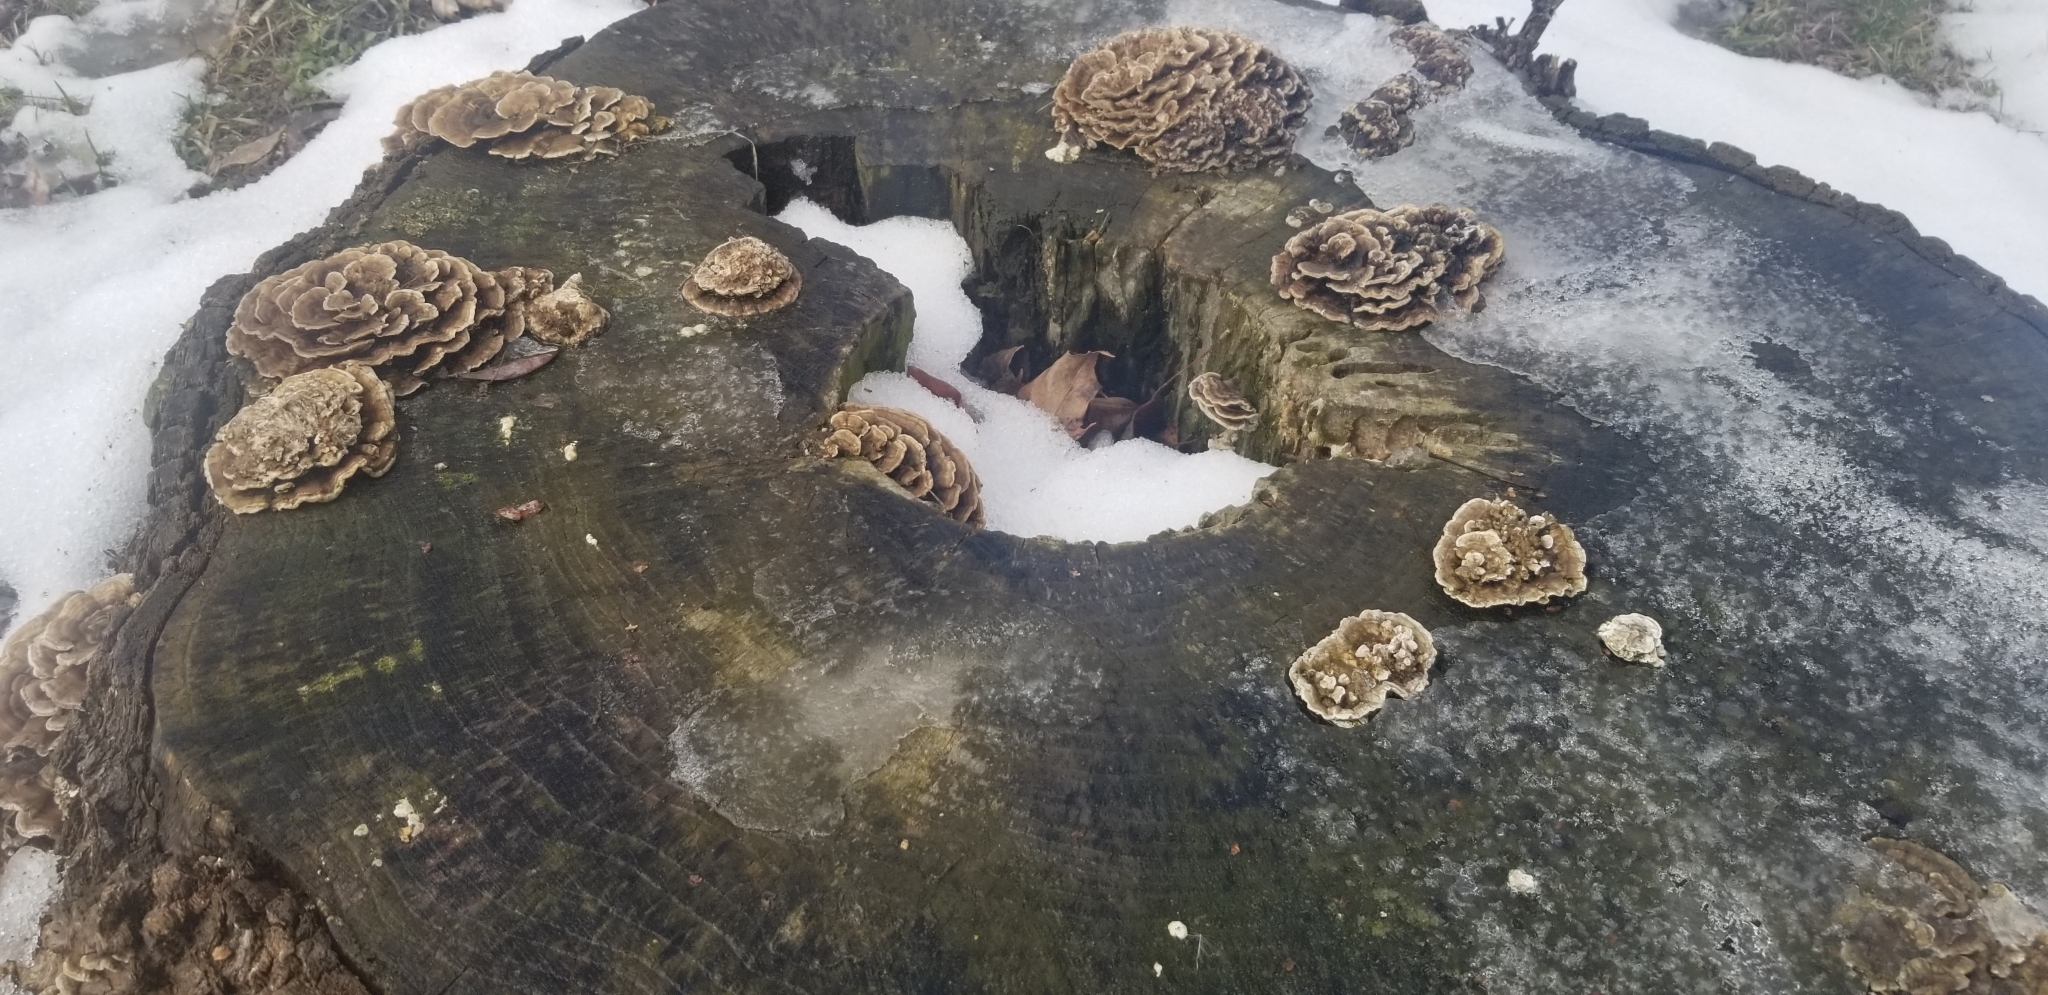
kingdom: Fungi
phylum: Basidiomycota
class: Agaricomycetes
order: Polyporales
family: Polyporaceae
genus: Trametes
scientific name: Trametes versicolor
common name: Turkeytail
